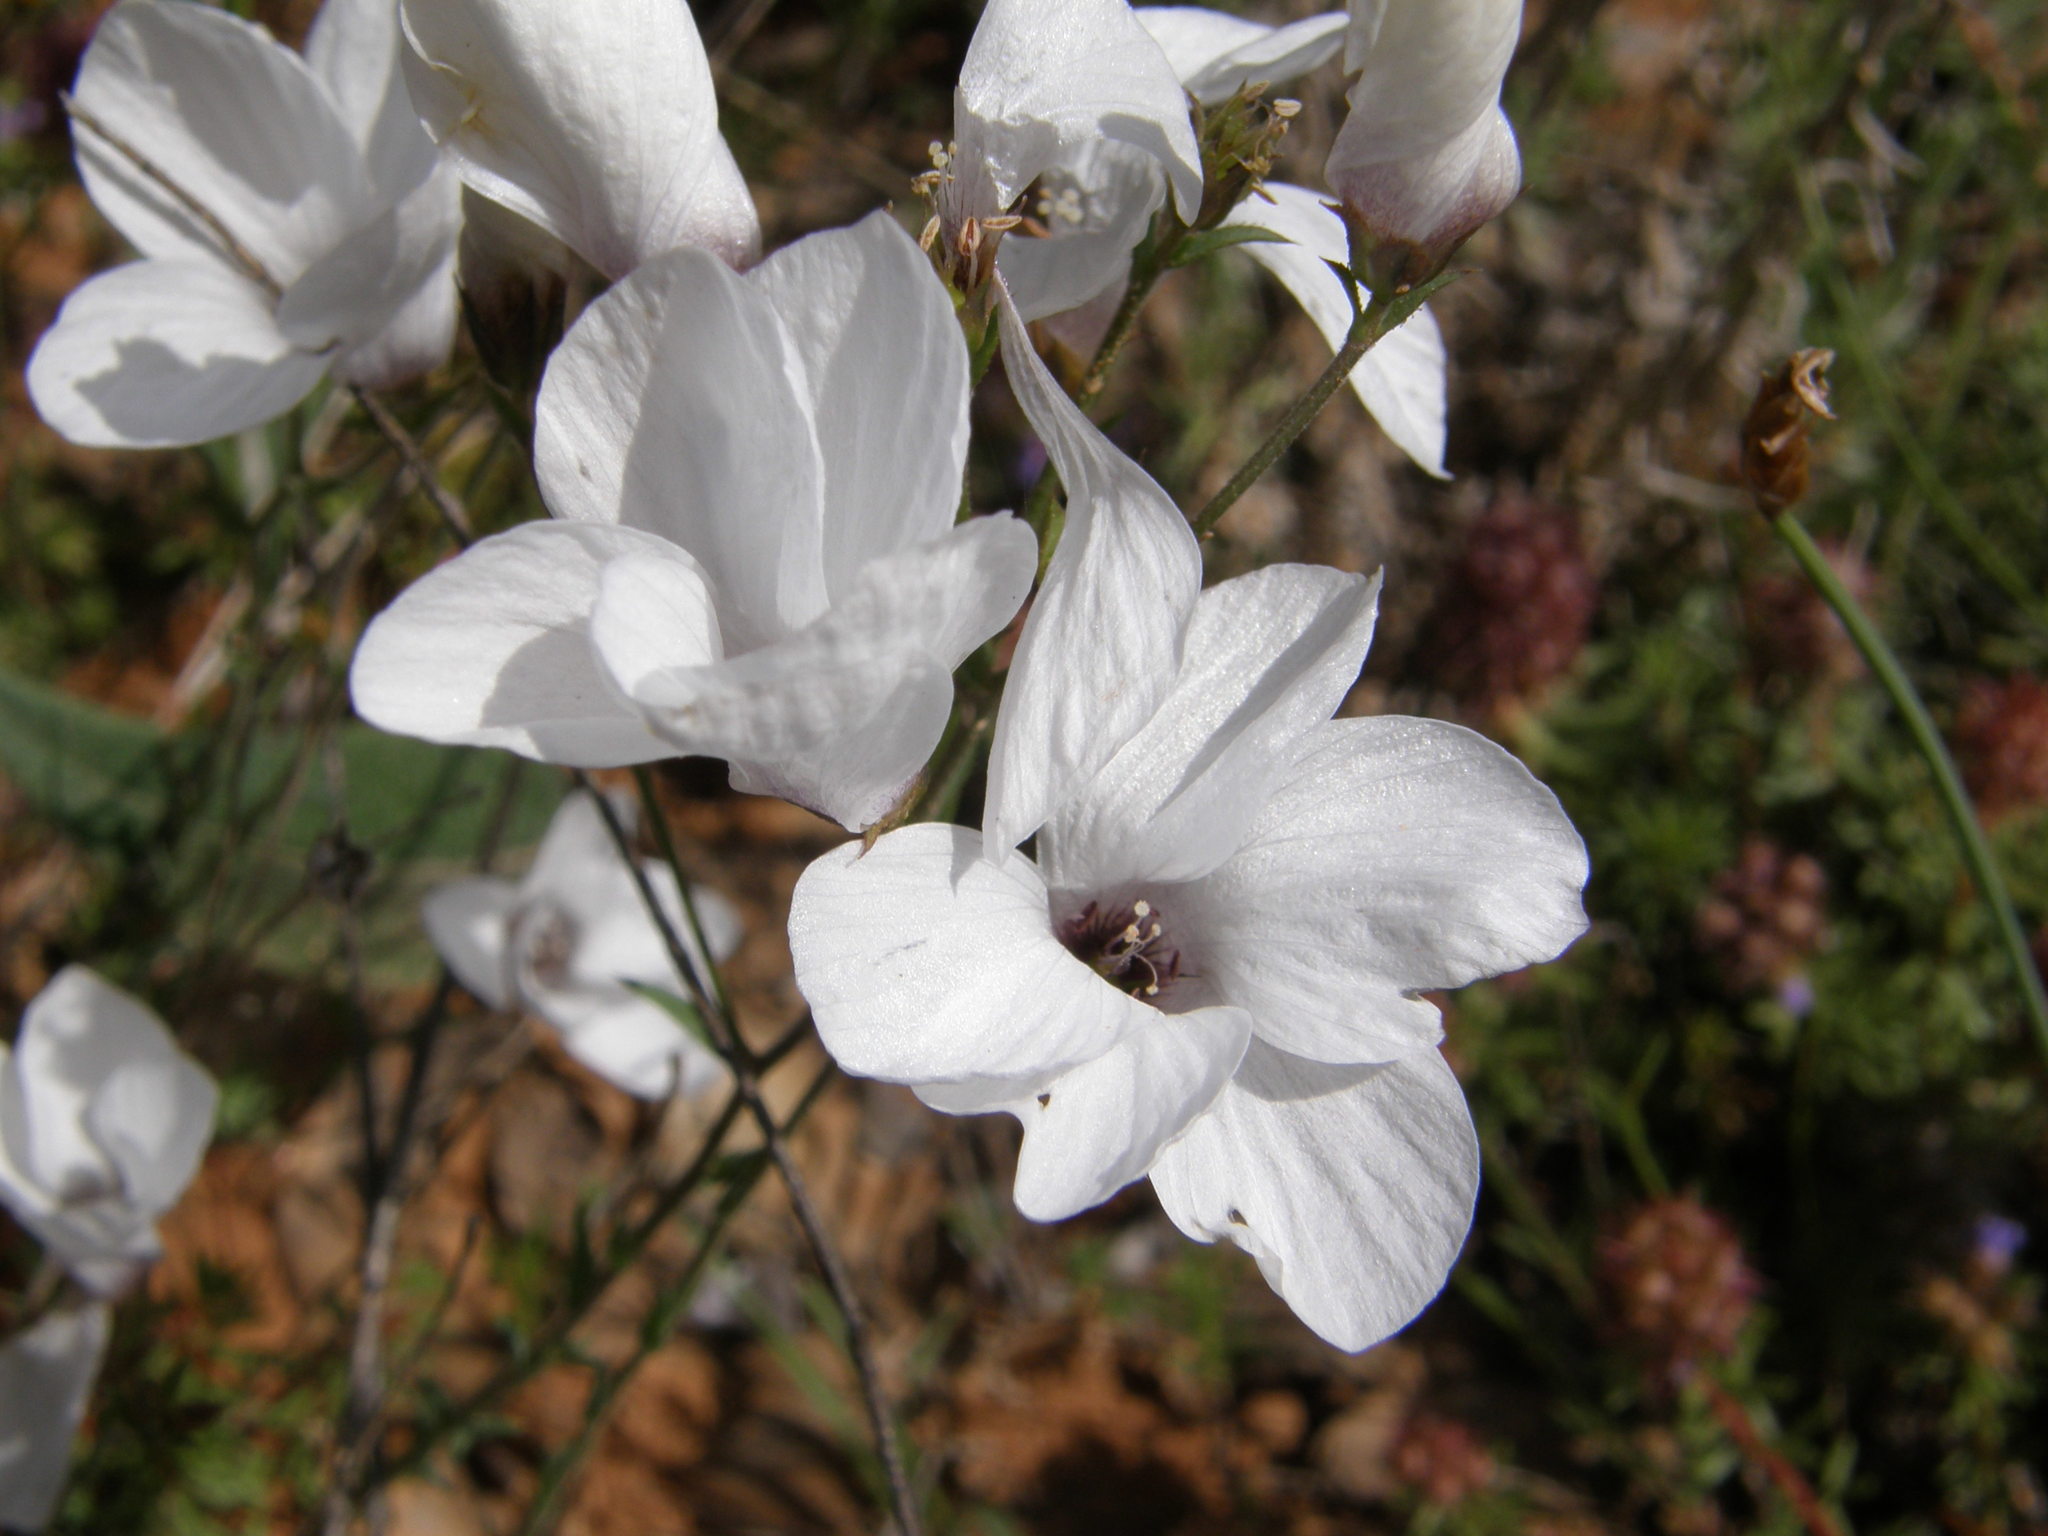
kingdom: Plantae
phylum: Tracheophyta
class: Magnoliopsida
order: Malpighiales
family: Linaceae
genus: Linum
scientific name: Linum suffruticosum
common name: White flax
